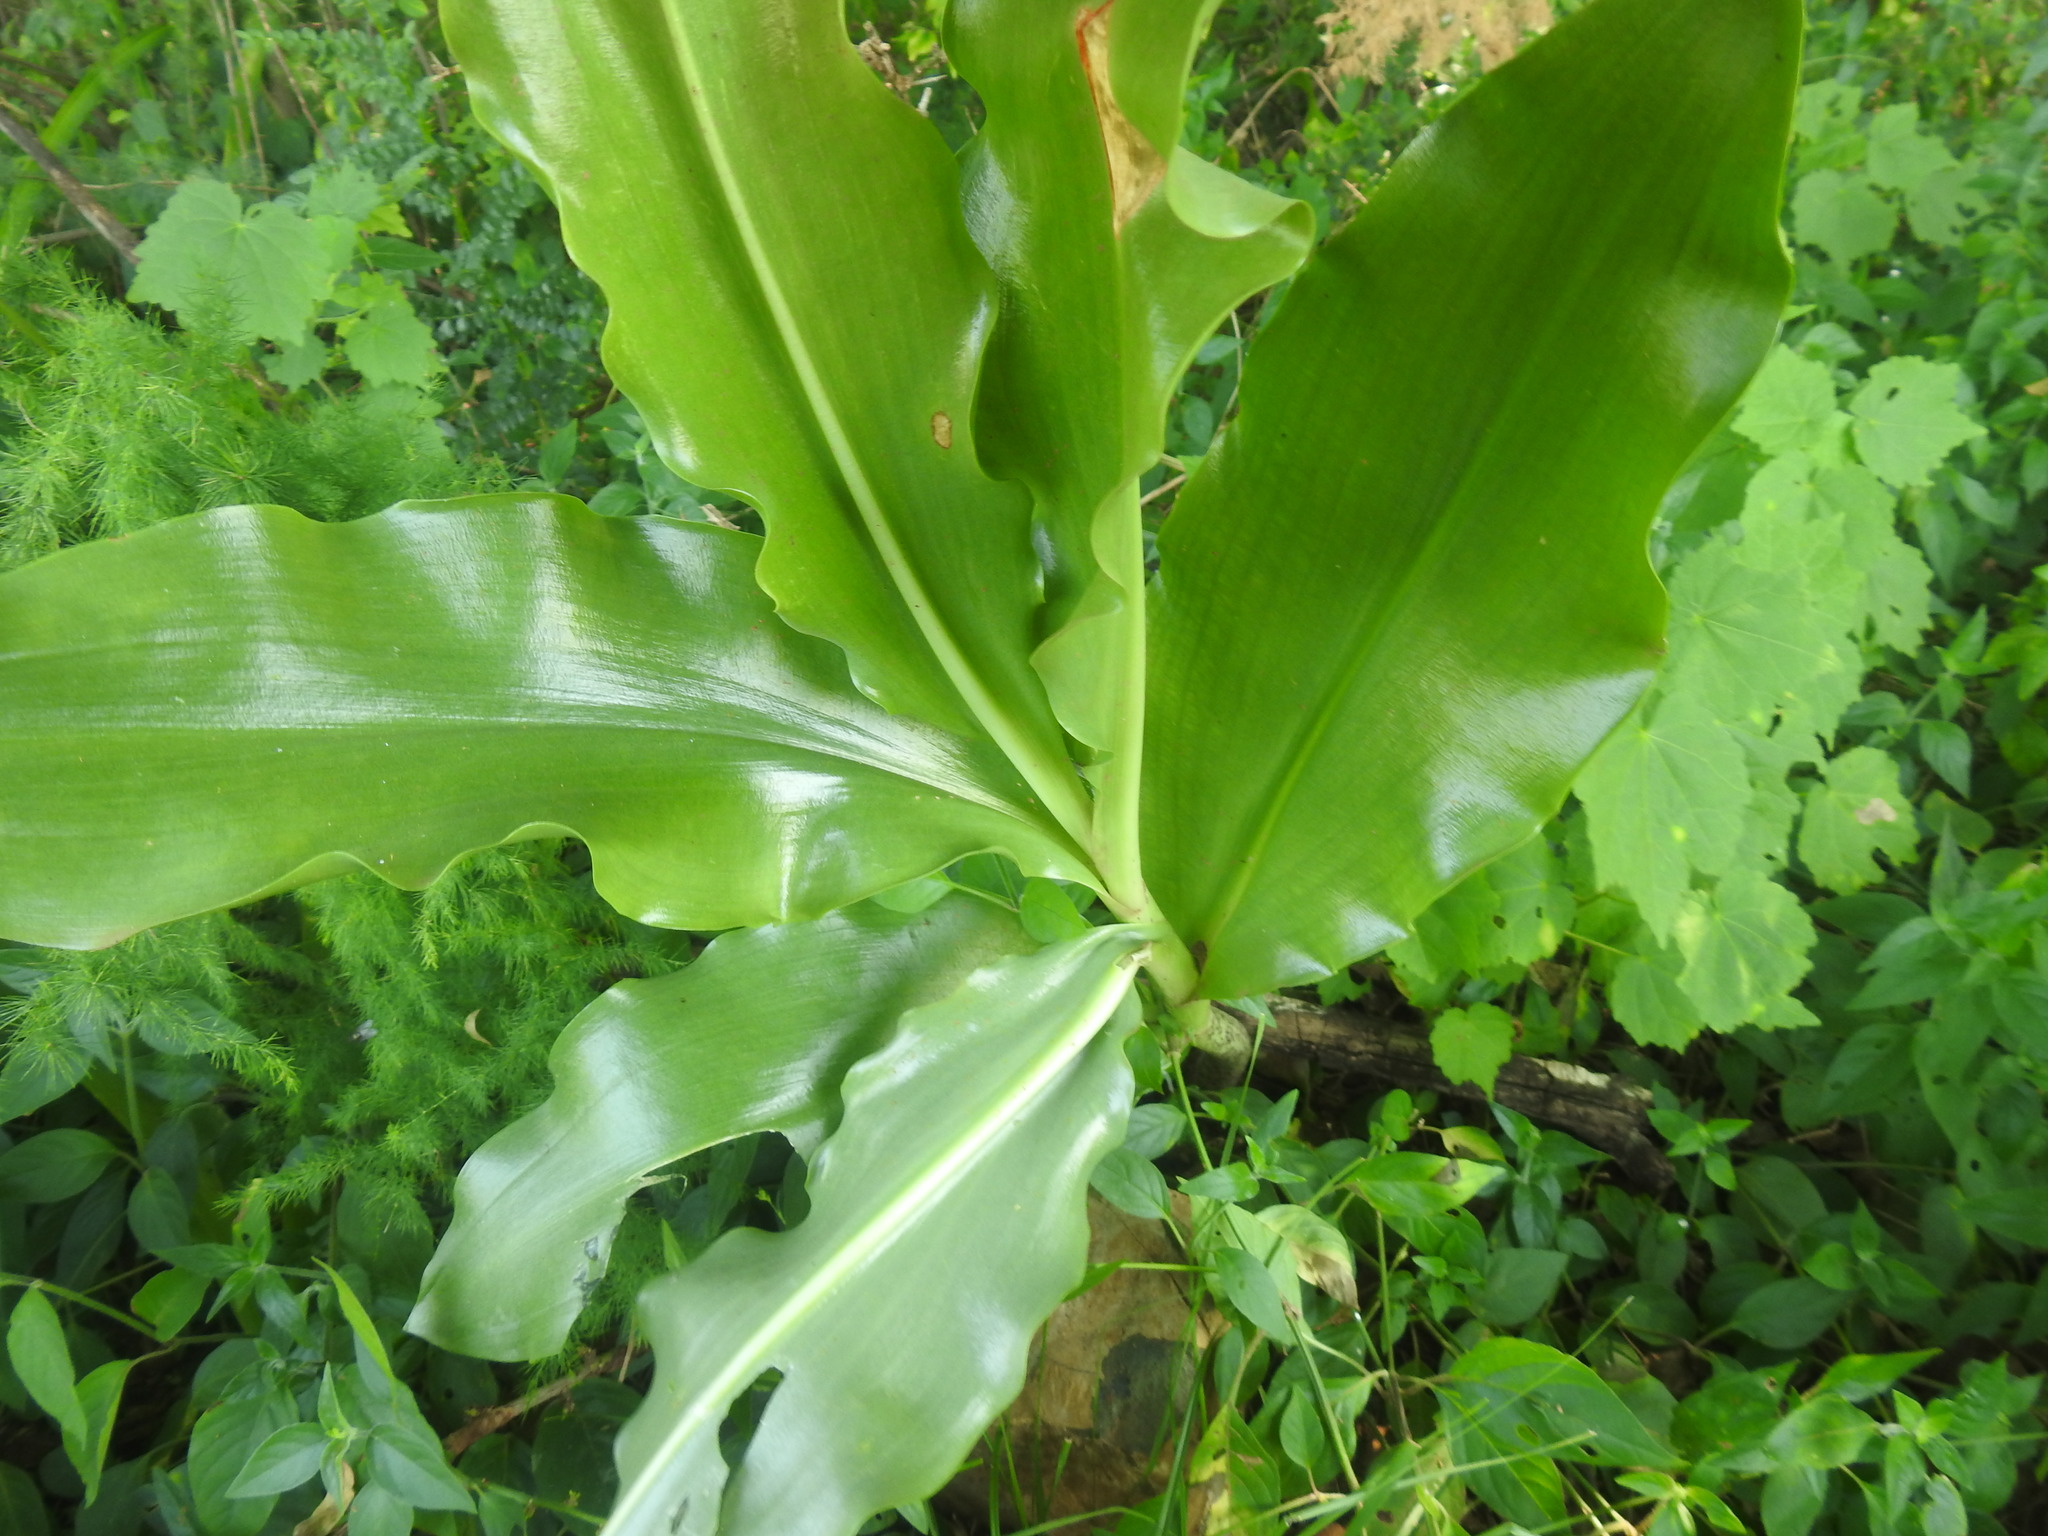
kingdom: Plantae
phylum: Tracheophyta
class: Liliopsida
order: Asparagales
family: Amaryllidaceae
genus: Scadoxus
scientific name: Scadoxus puniceus
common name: Royal-paintbrush
